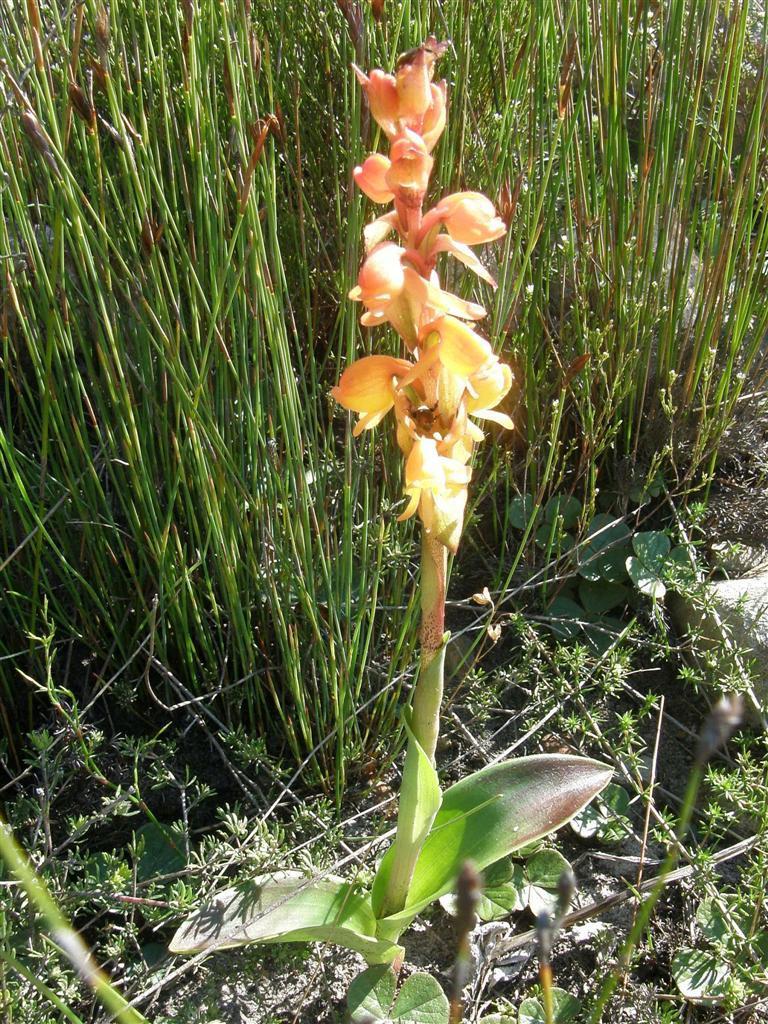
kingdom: Plantae
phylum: Tracheophyta
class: Liliopsida
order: Asparagales
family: Orchidaceae
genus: Satyrium
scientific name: Satyrium coriifolium
